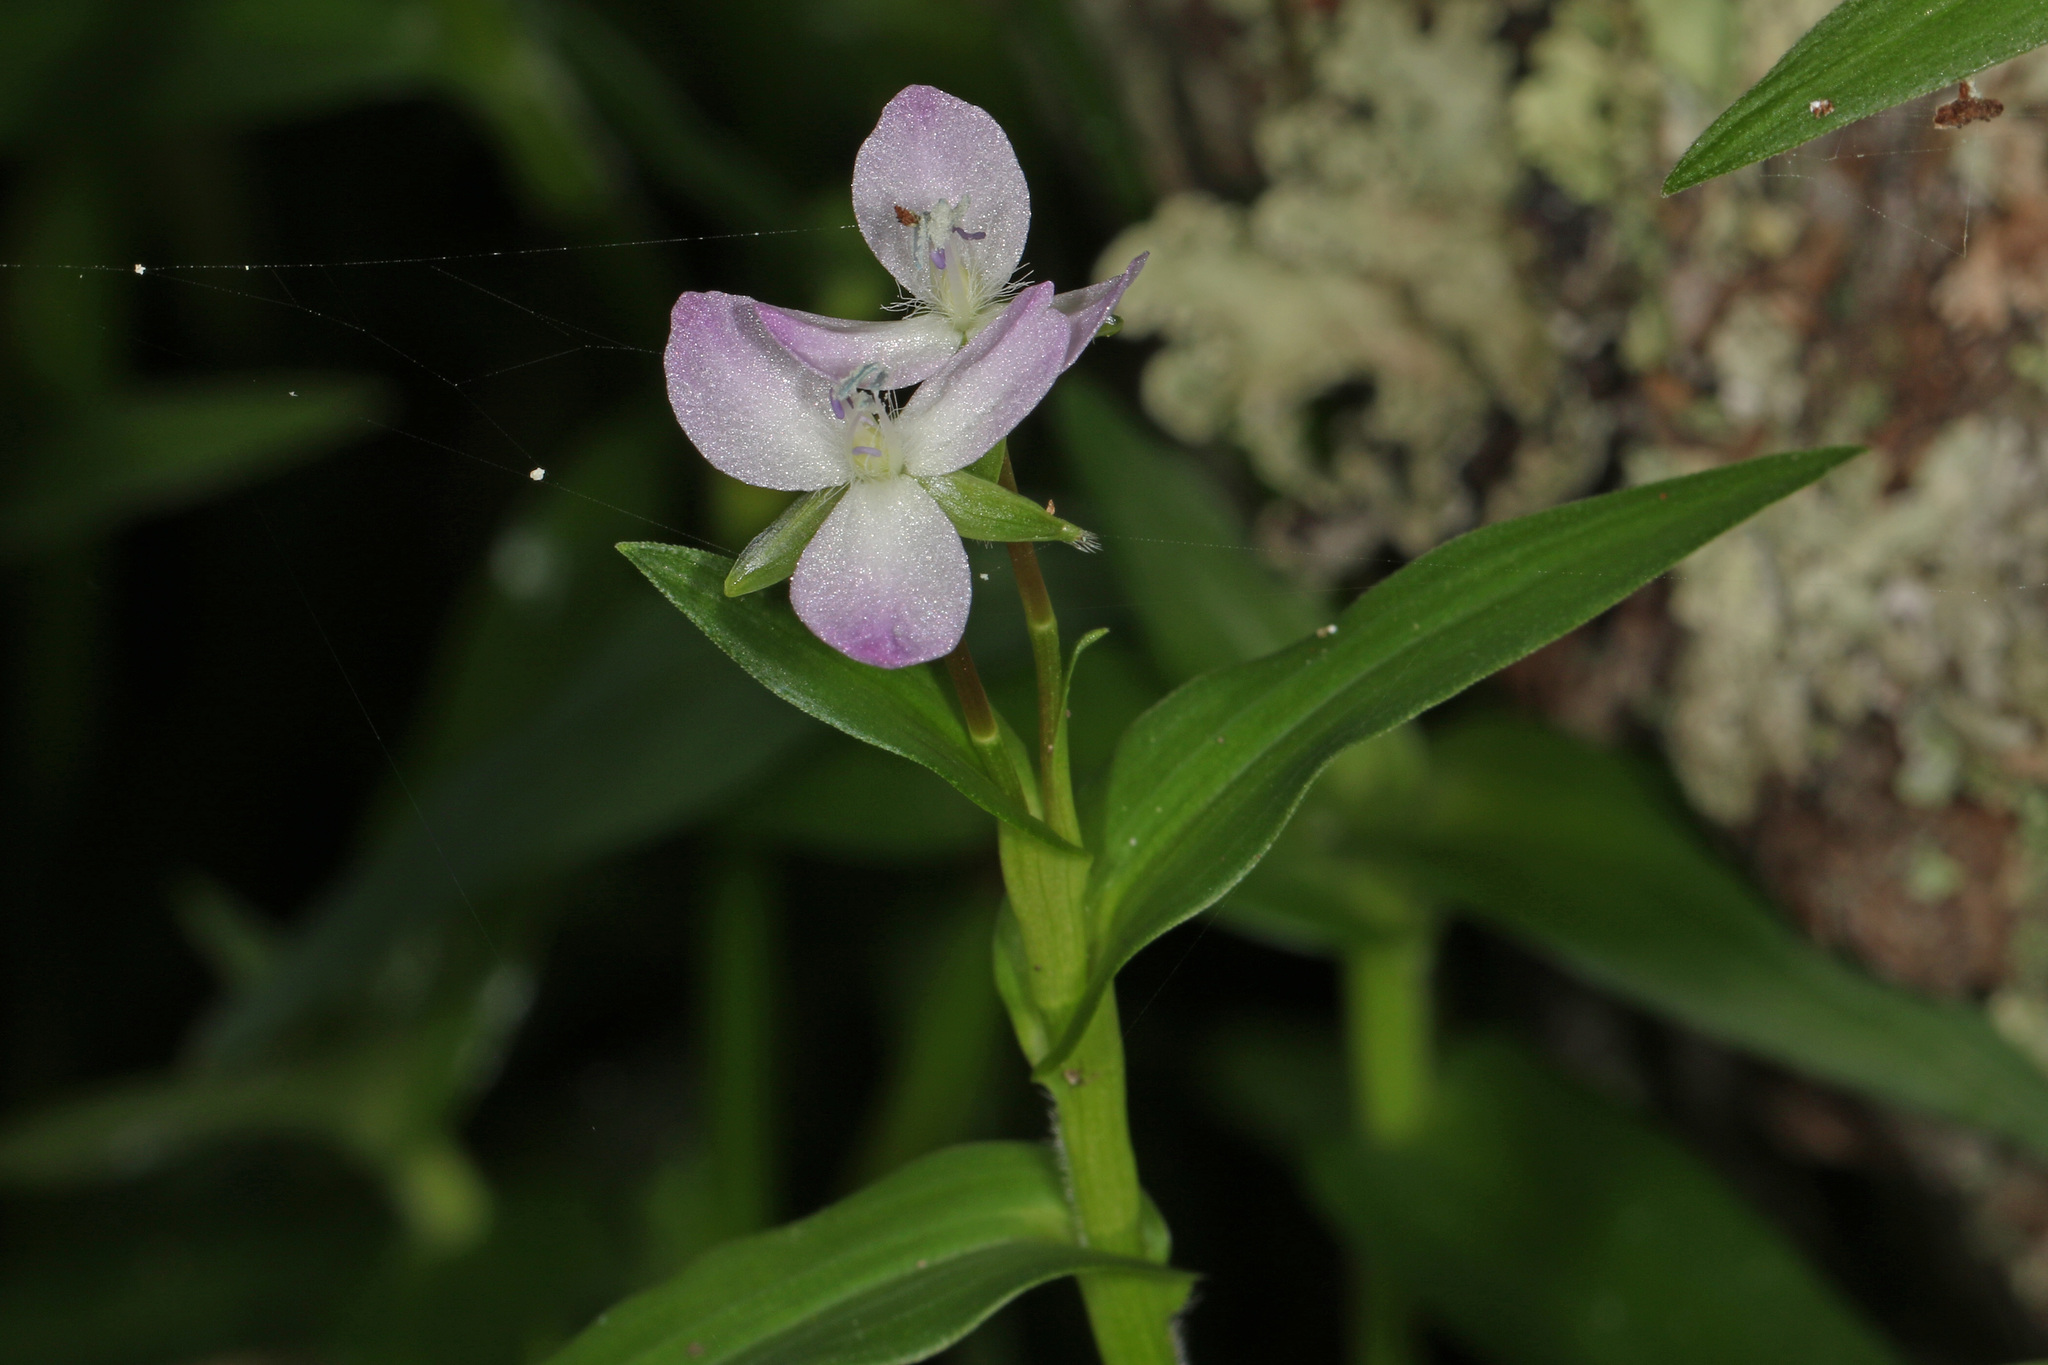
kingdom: Plantae
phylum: Tracheophyta
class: Liliopsida
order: Commelinales
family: Commelinaceae
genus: Murdannia
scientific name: Murdannia keisak
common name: Wartremoving herb
